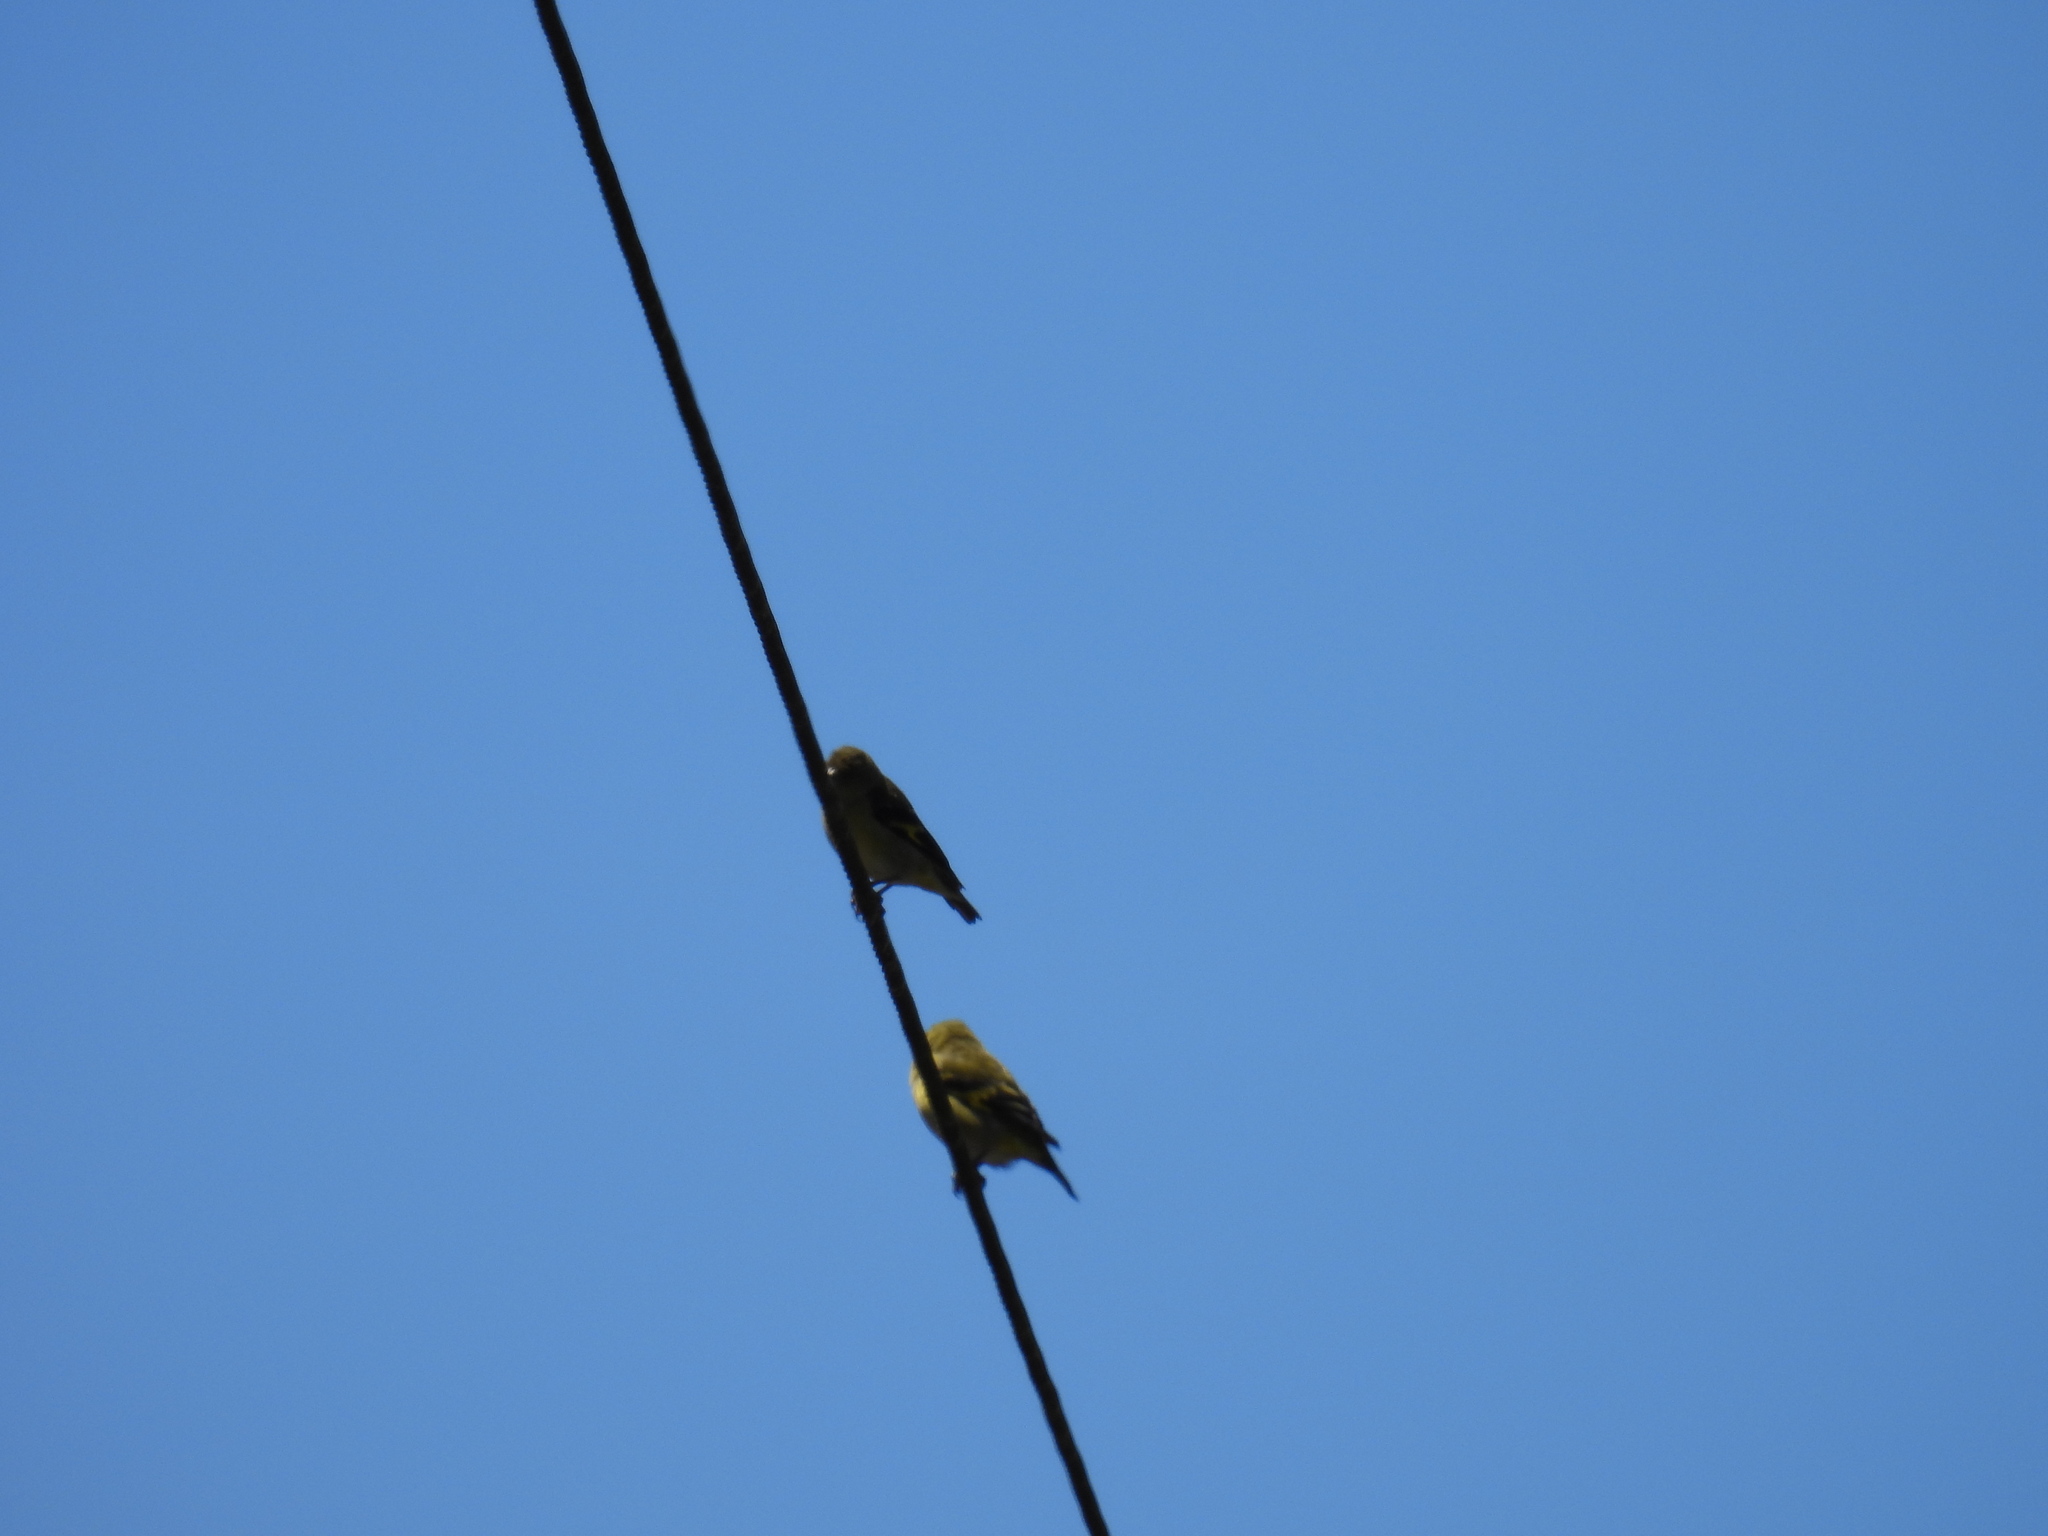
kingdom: Animalia
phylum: Chordata
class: Aves
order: Passeriformes
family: Fringillidae
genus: Spinus
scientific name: Spinus spinescens
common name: Andean siskin
